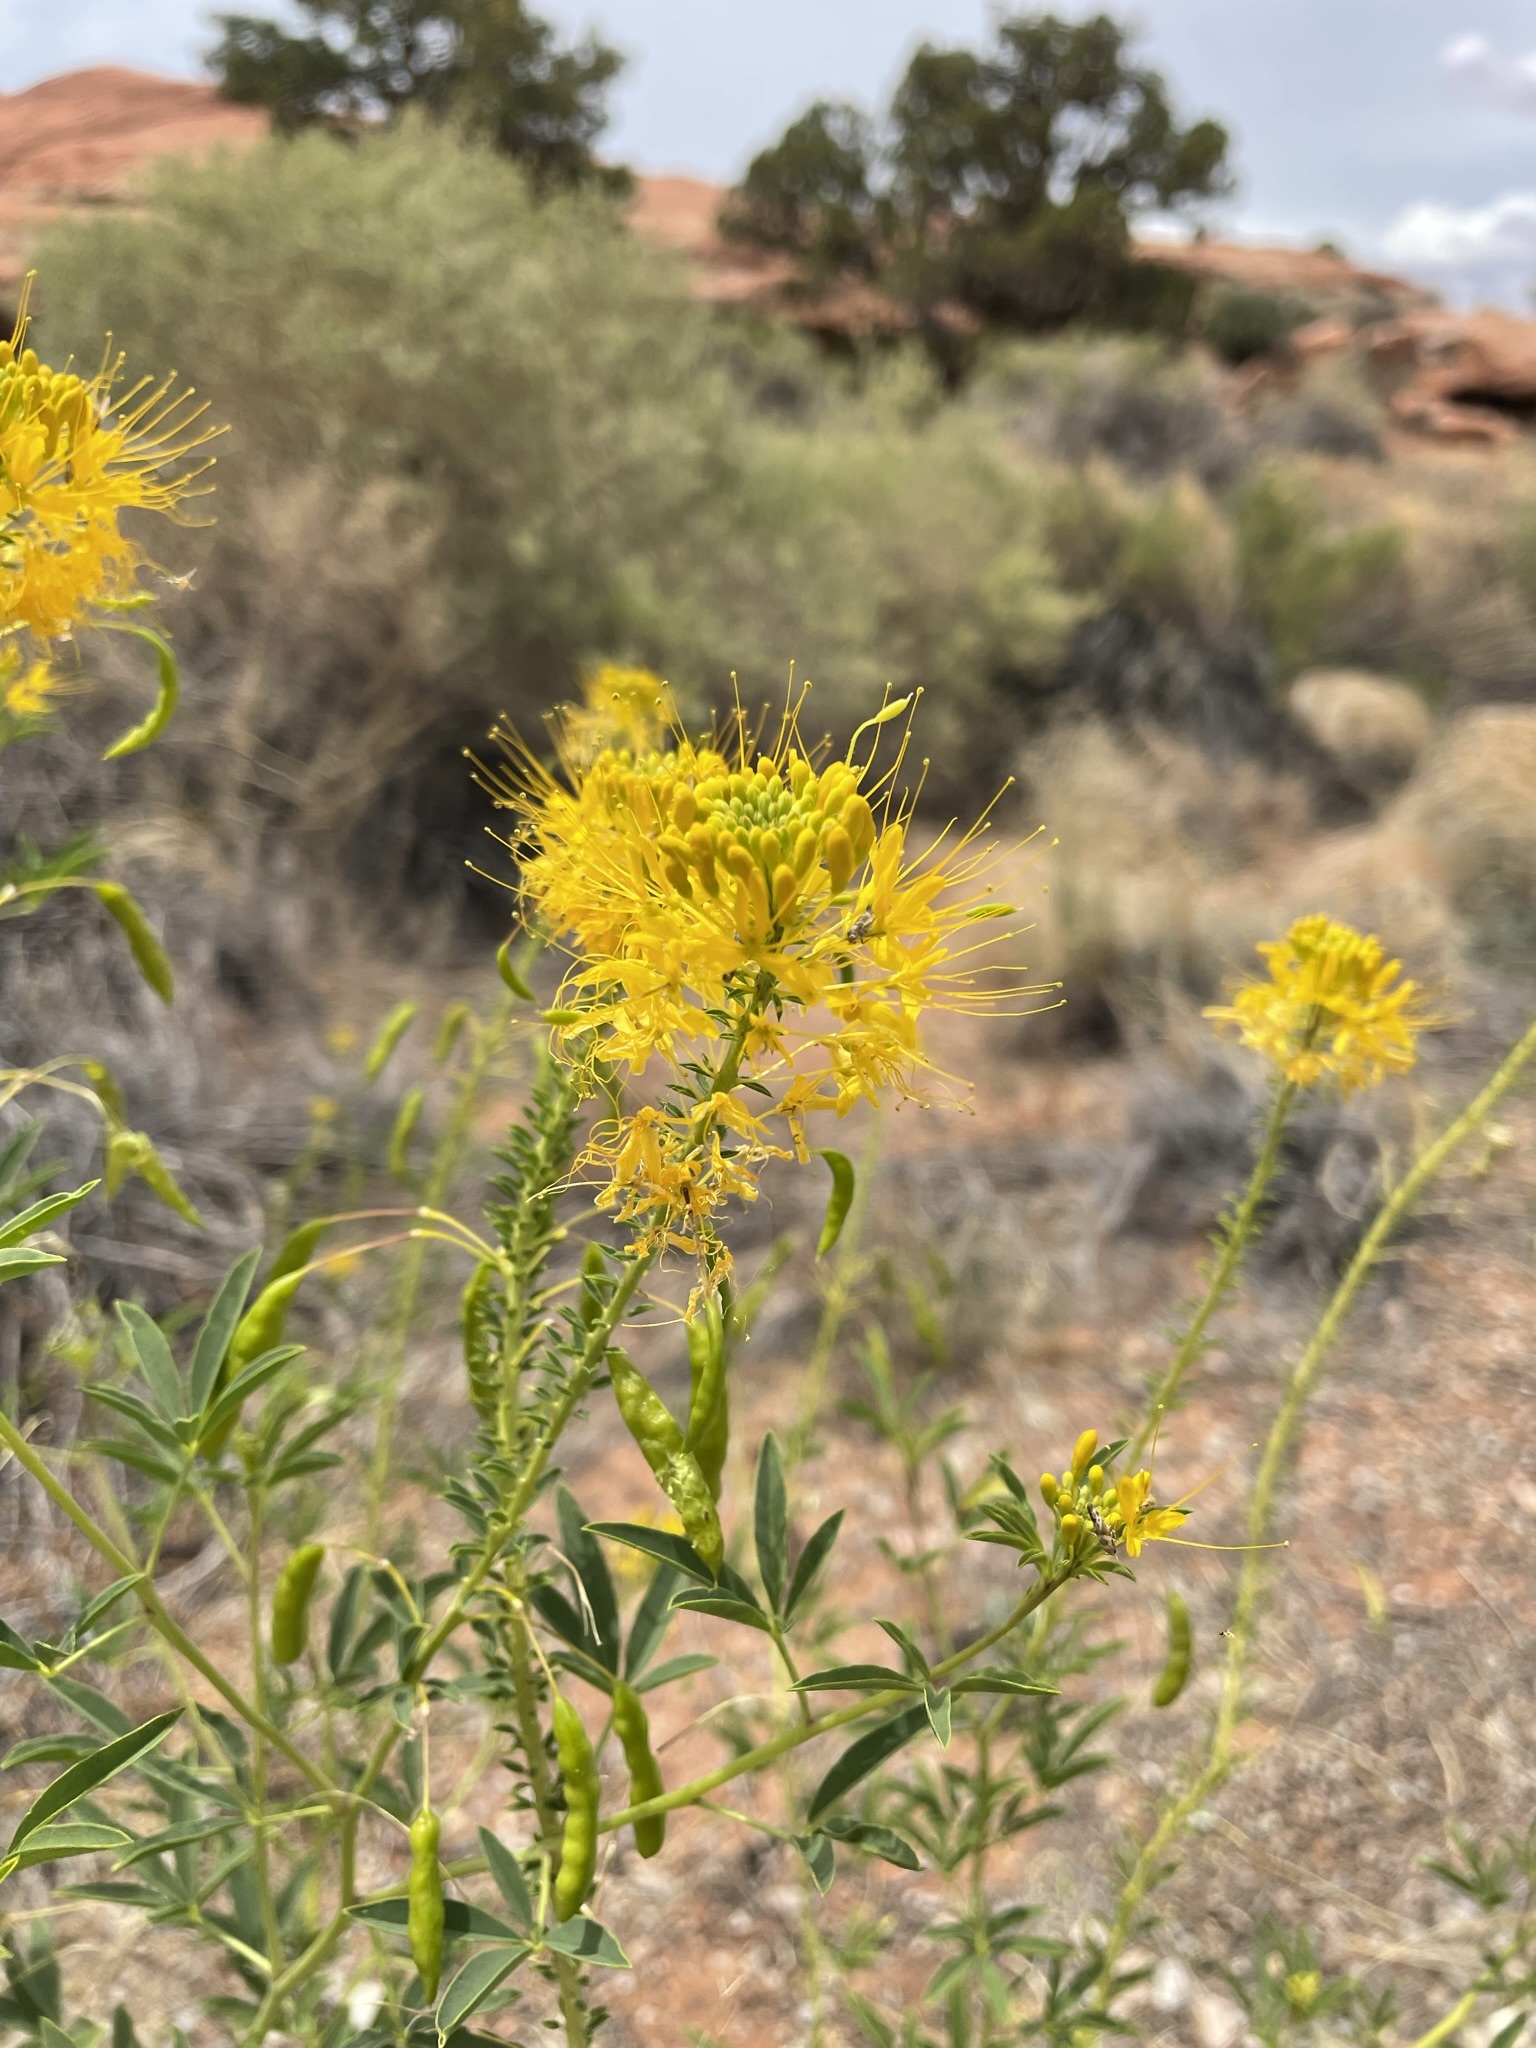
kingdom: Plantae
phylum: Tracheophyta
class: Magnoliopsida
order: Brassicales
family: Cleomaceae
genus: Cleomella
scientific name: Cleomella lutea
